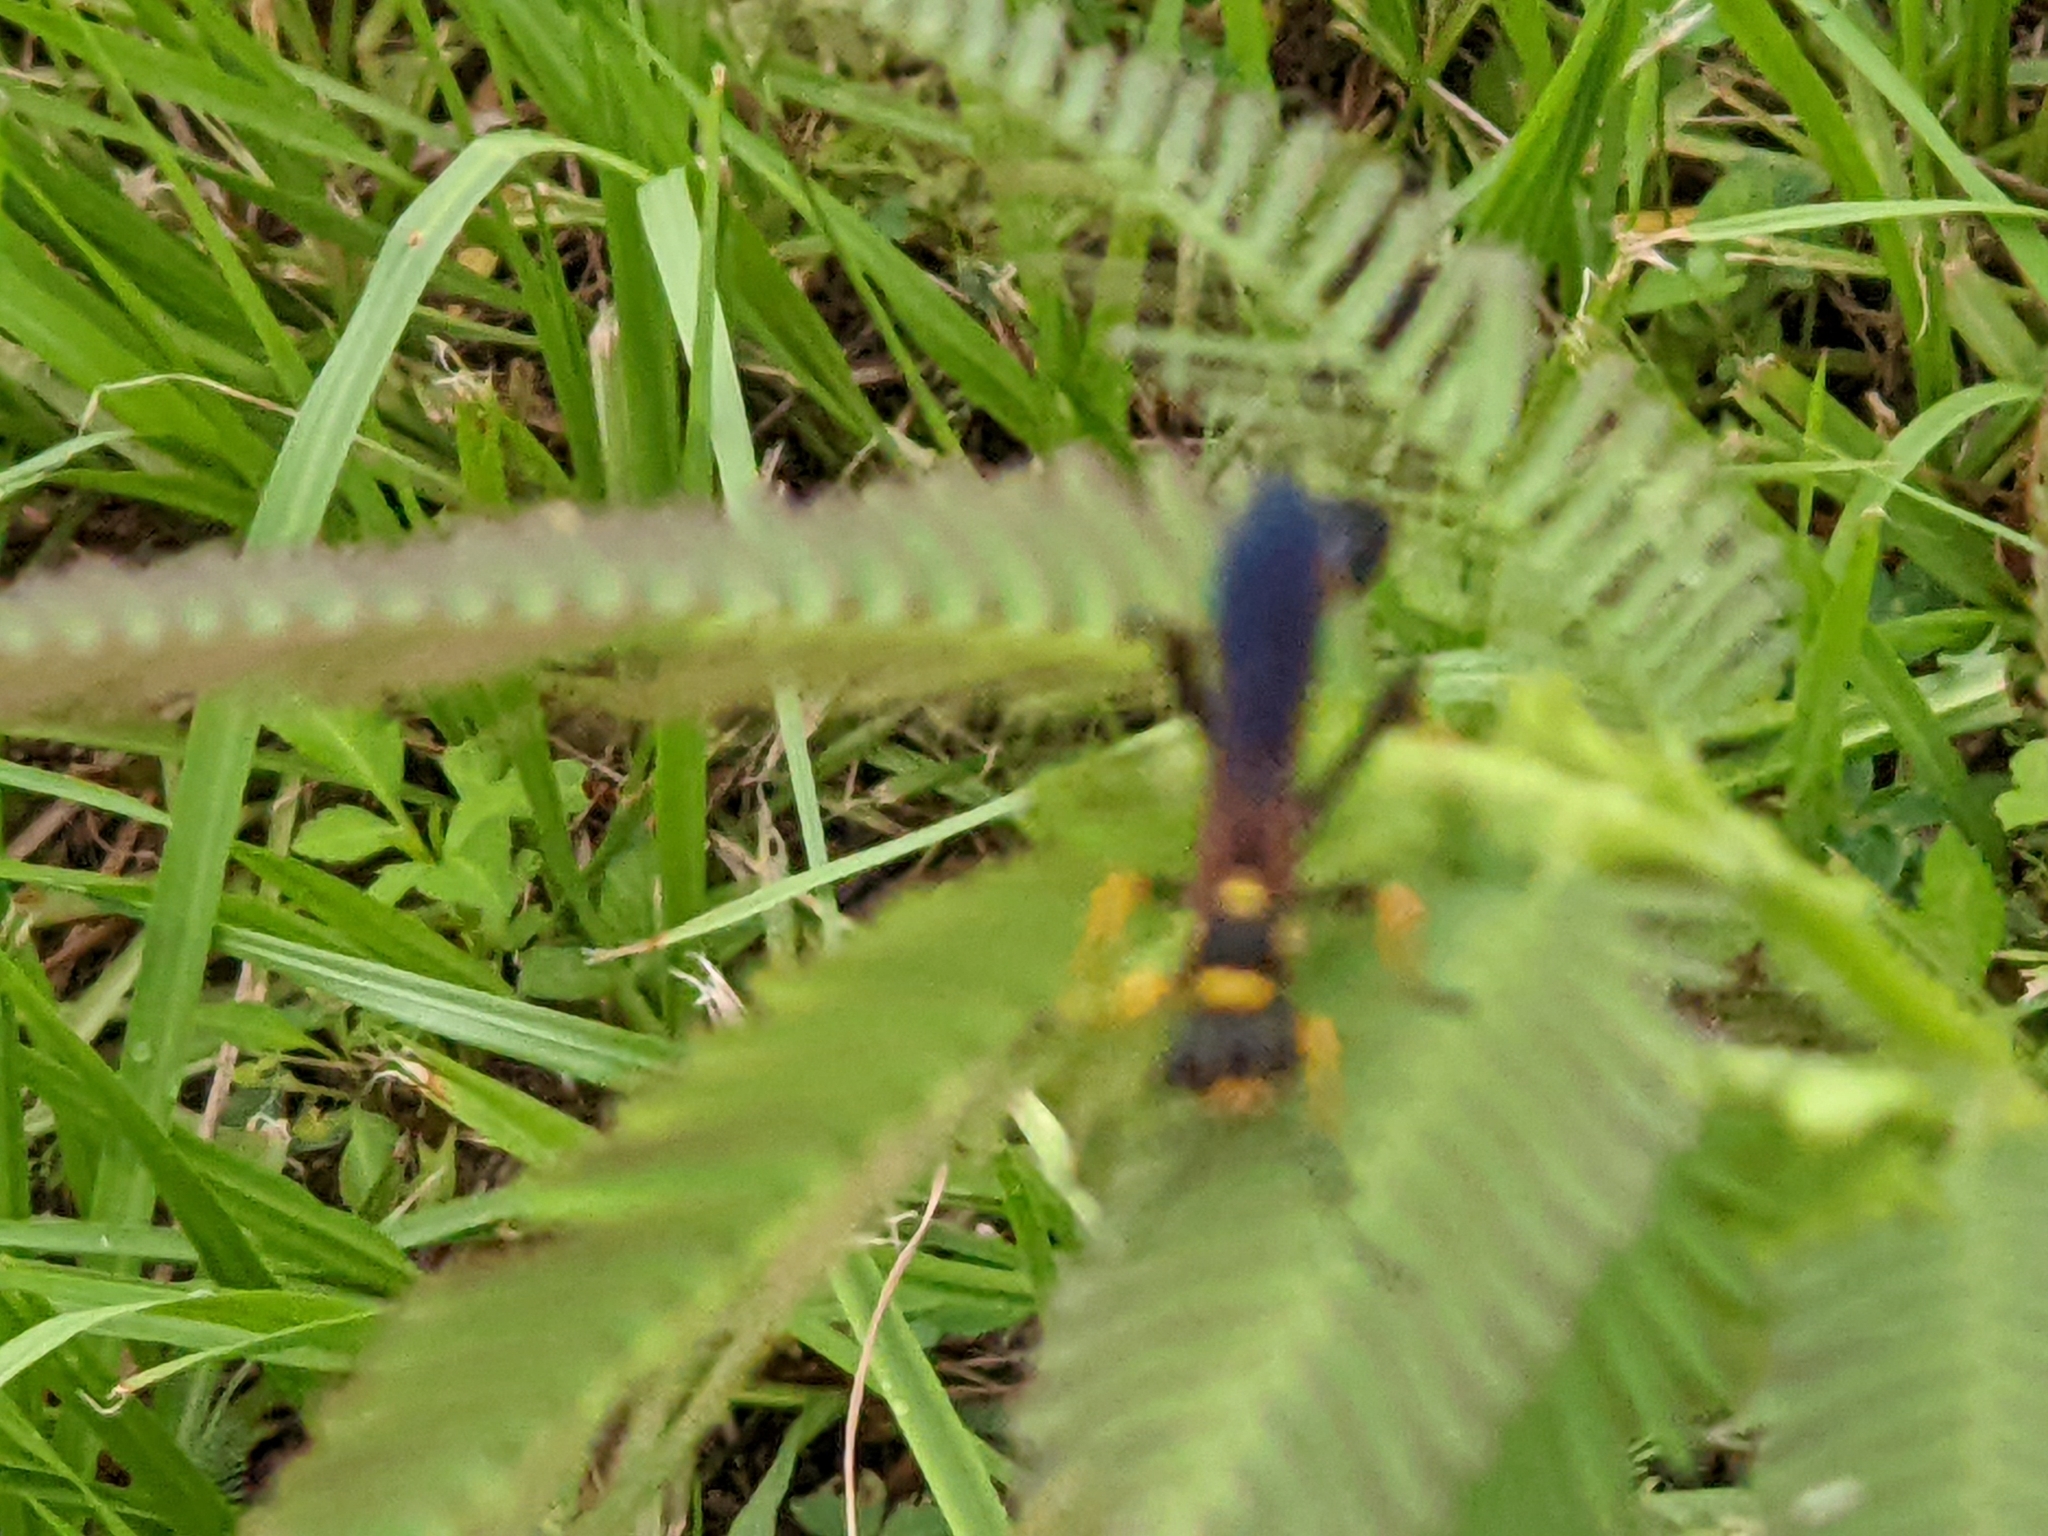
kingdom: Animalia
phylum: Arthropoda
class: Insecta
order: Hymenoptera
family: Sphecidae
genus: Sceliphron
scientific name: Sceliphron caementarium
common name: Mud dauber
